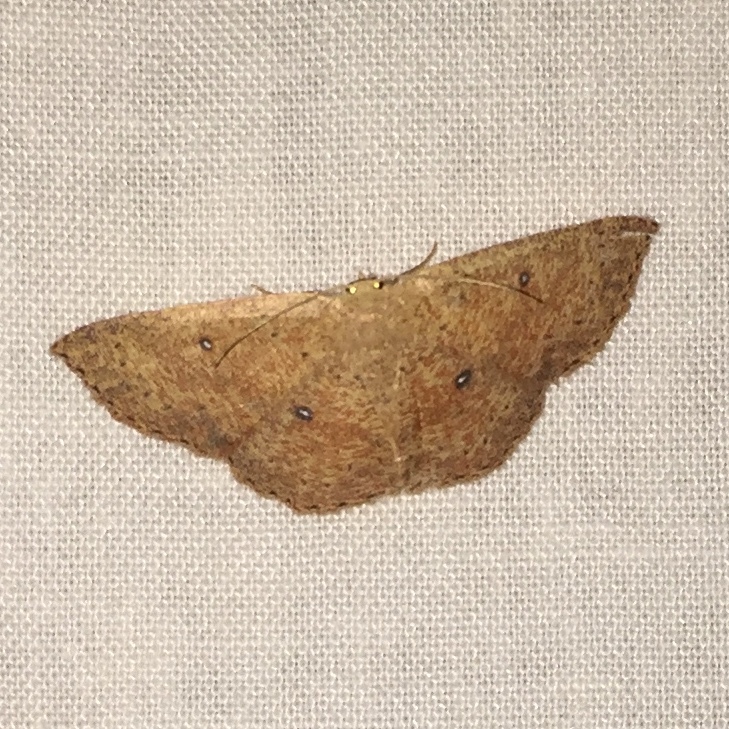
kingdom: Animalia
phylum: Arthropoda
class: Insecta
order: Lepidoptera
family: Geometridae
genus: Cyclophora
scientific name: Cyclophora packardi
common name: Packard's wave
